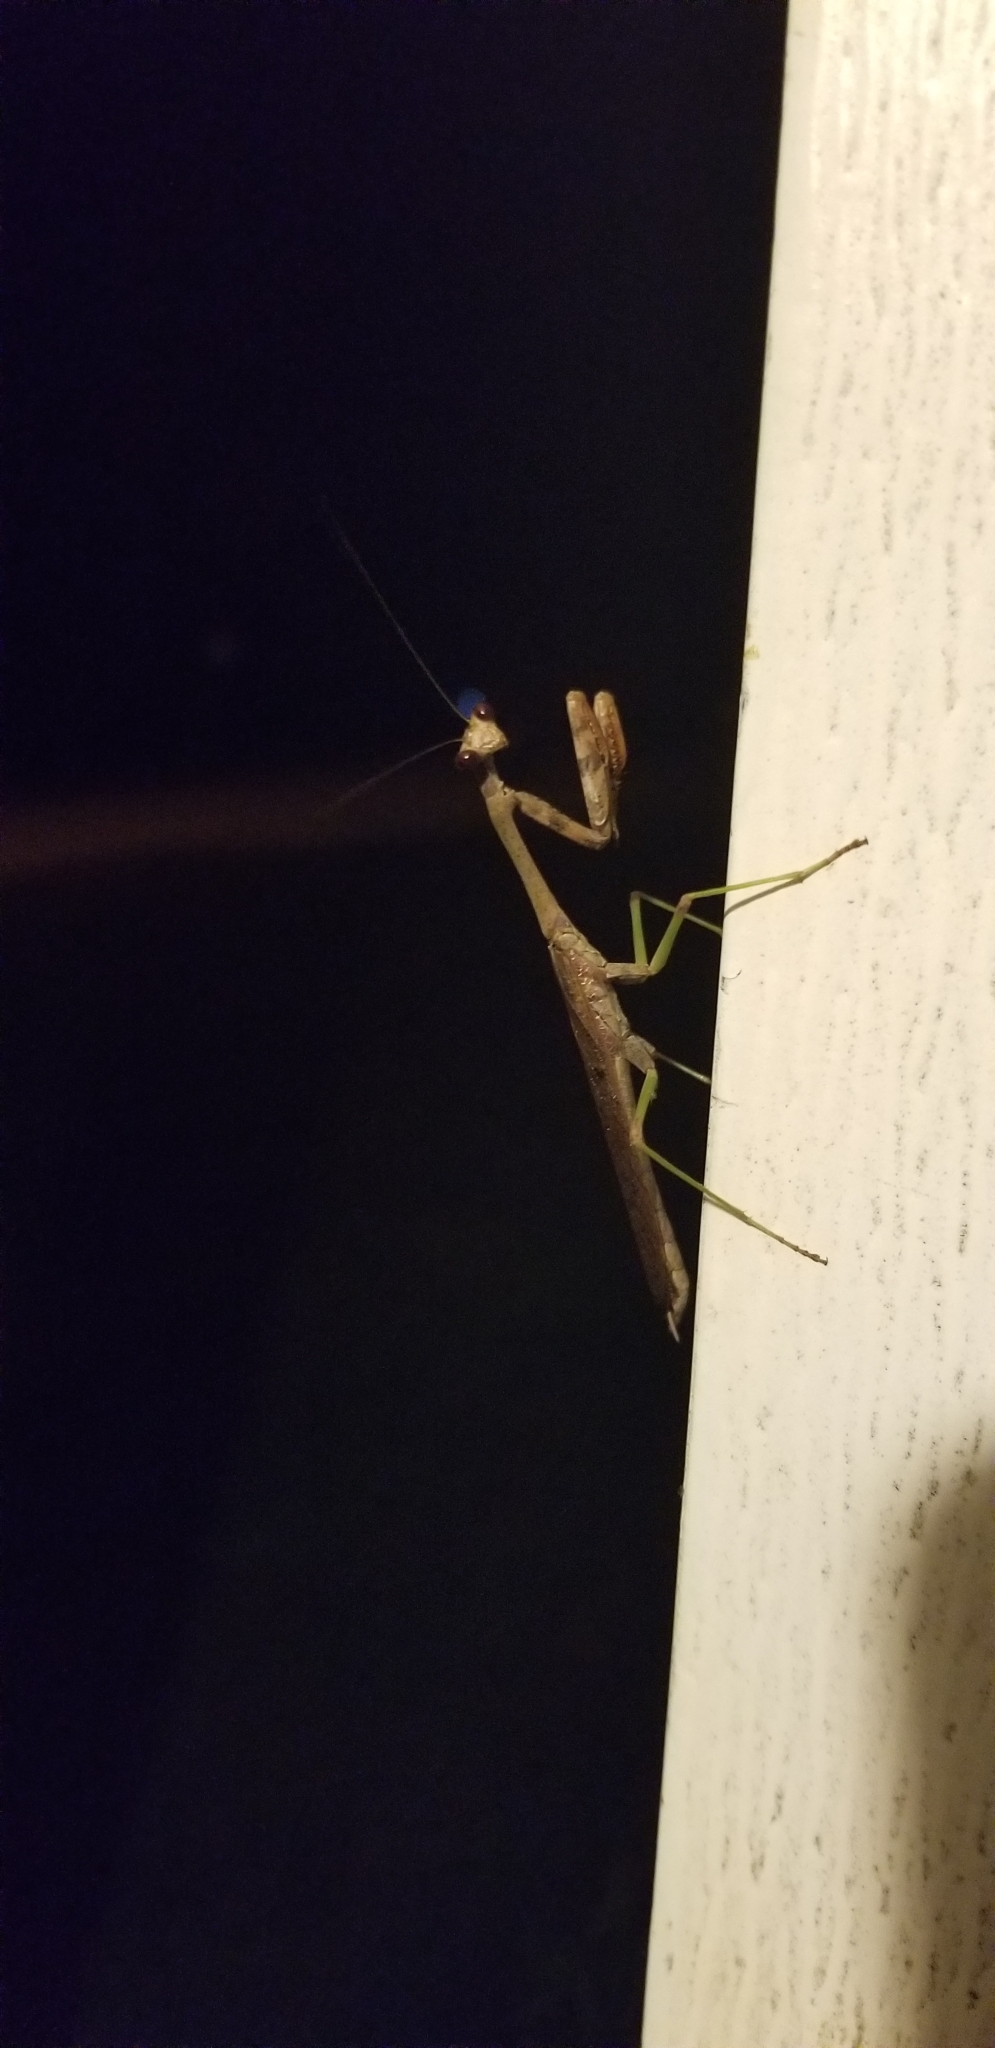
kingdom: Animalia
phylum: Arthropoda
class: Insecta
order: Mantodea
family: Mantidae
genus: Stagmomantis
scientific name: Stagmomantis carolina
